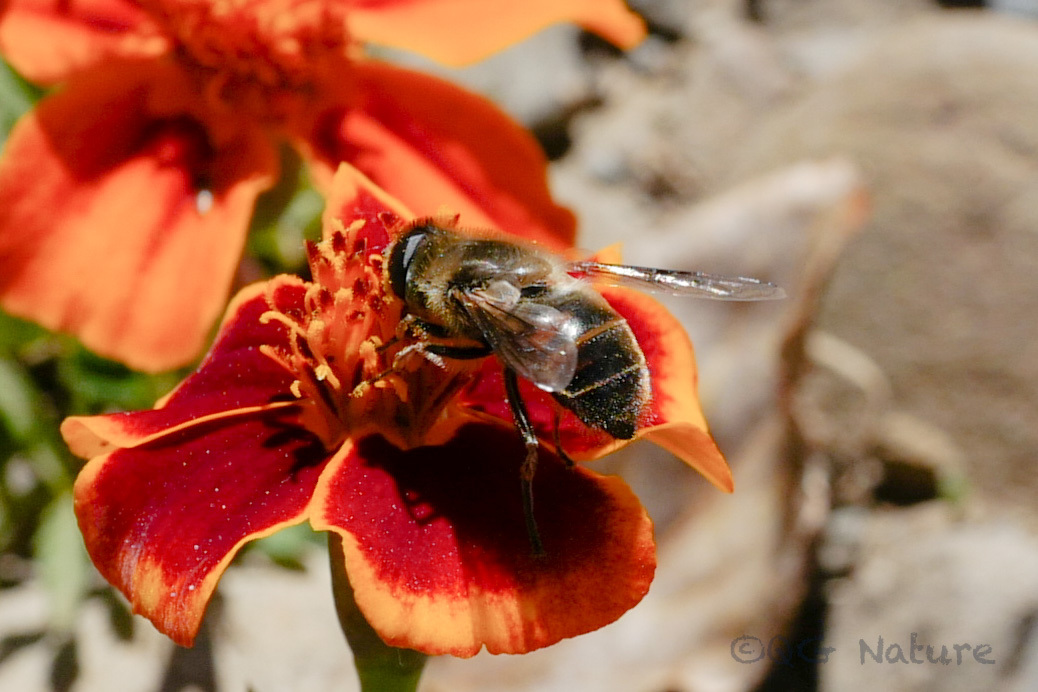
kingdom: Animalia
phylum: Arthropoda
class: Insecta
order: Diptera
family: Syrphidae
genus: Eristalis
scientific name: Eristalis tenax
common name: Drone fly
